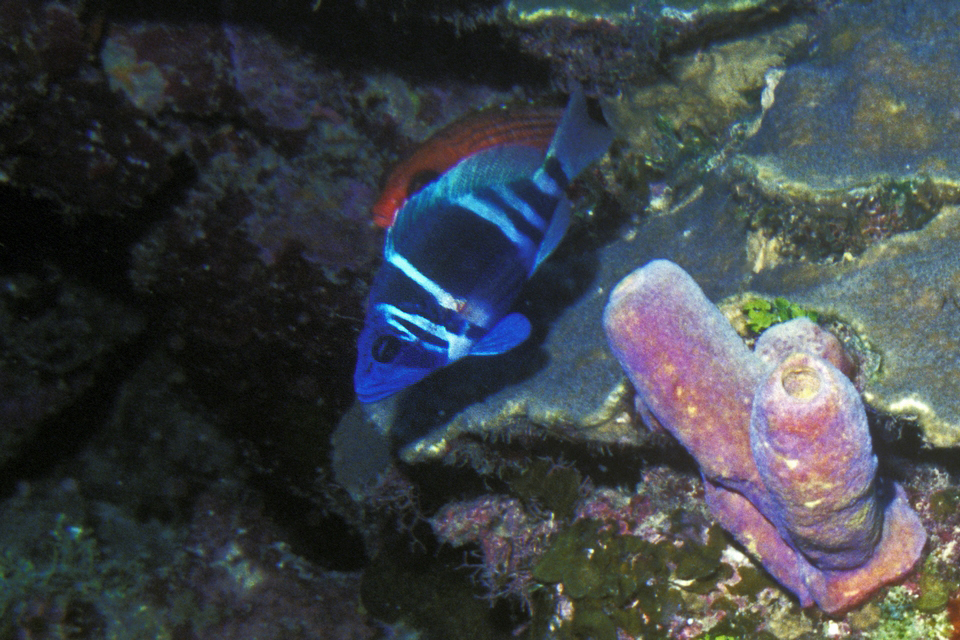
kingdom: Animalia
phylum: Chordata
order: Perciformes
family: Serranidae
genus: Hypoplectrus
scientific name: Hypoplectrus indigo
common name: Indigo hamlet
